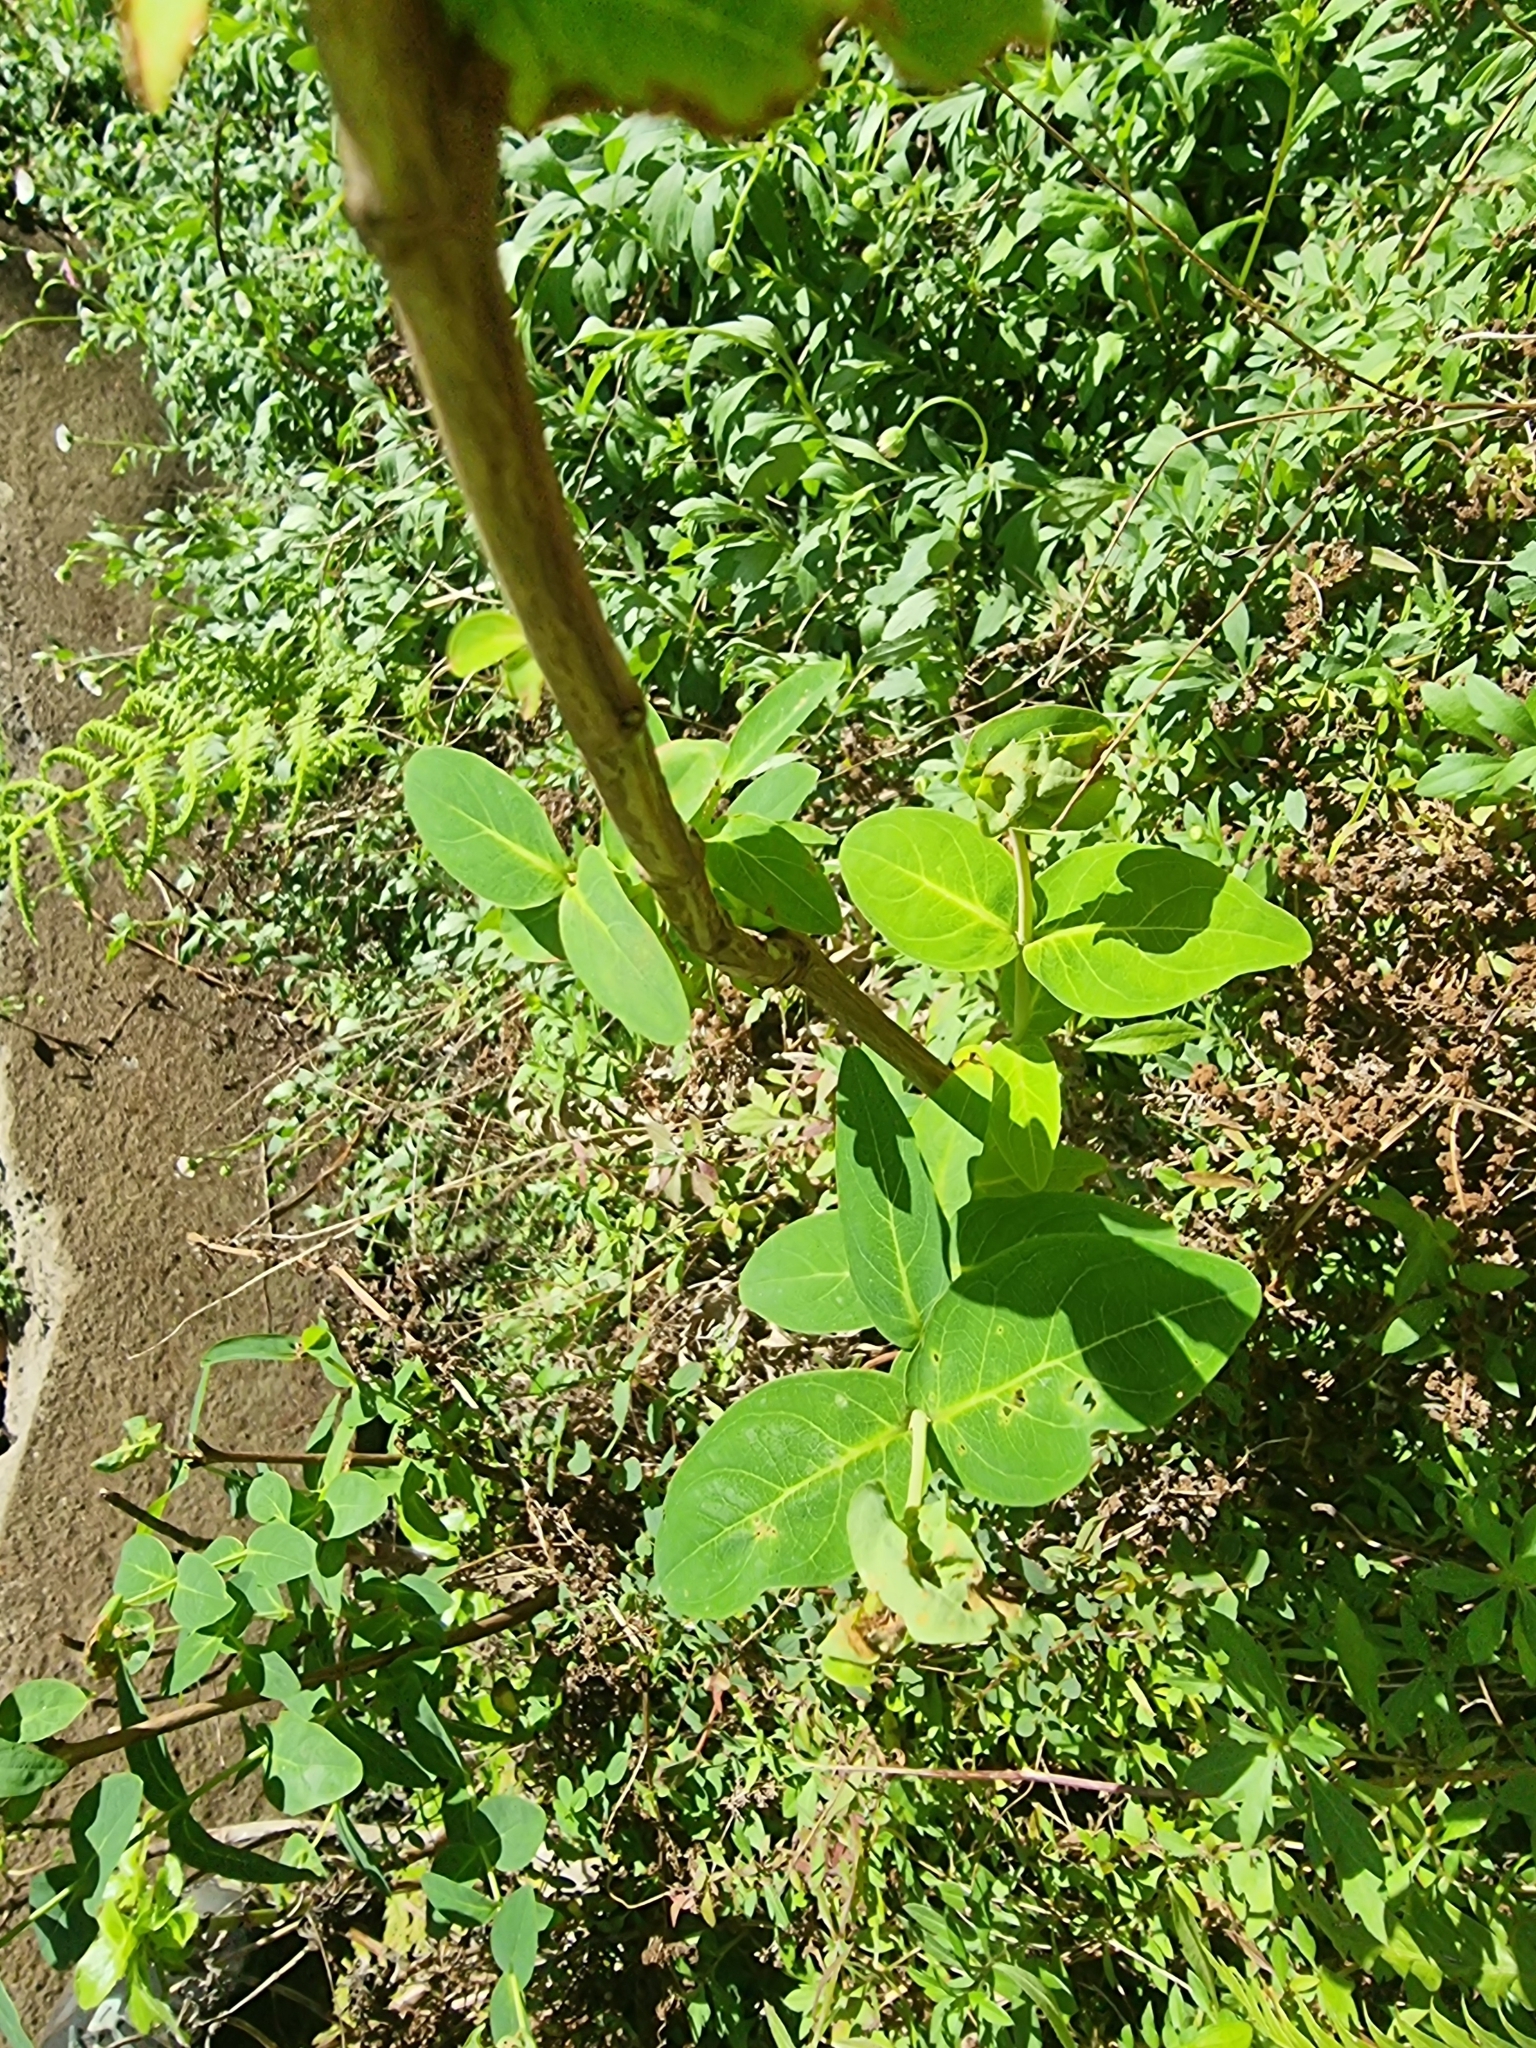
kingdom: Plantae
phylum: Tracheophyta
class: Magnoliopsida
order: Malpighiales
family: Hypericaceae
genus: Hypericum
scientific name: Hypericum grandifolium
